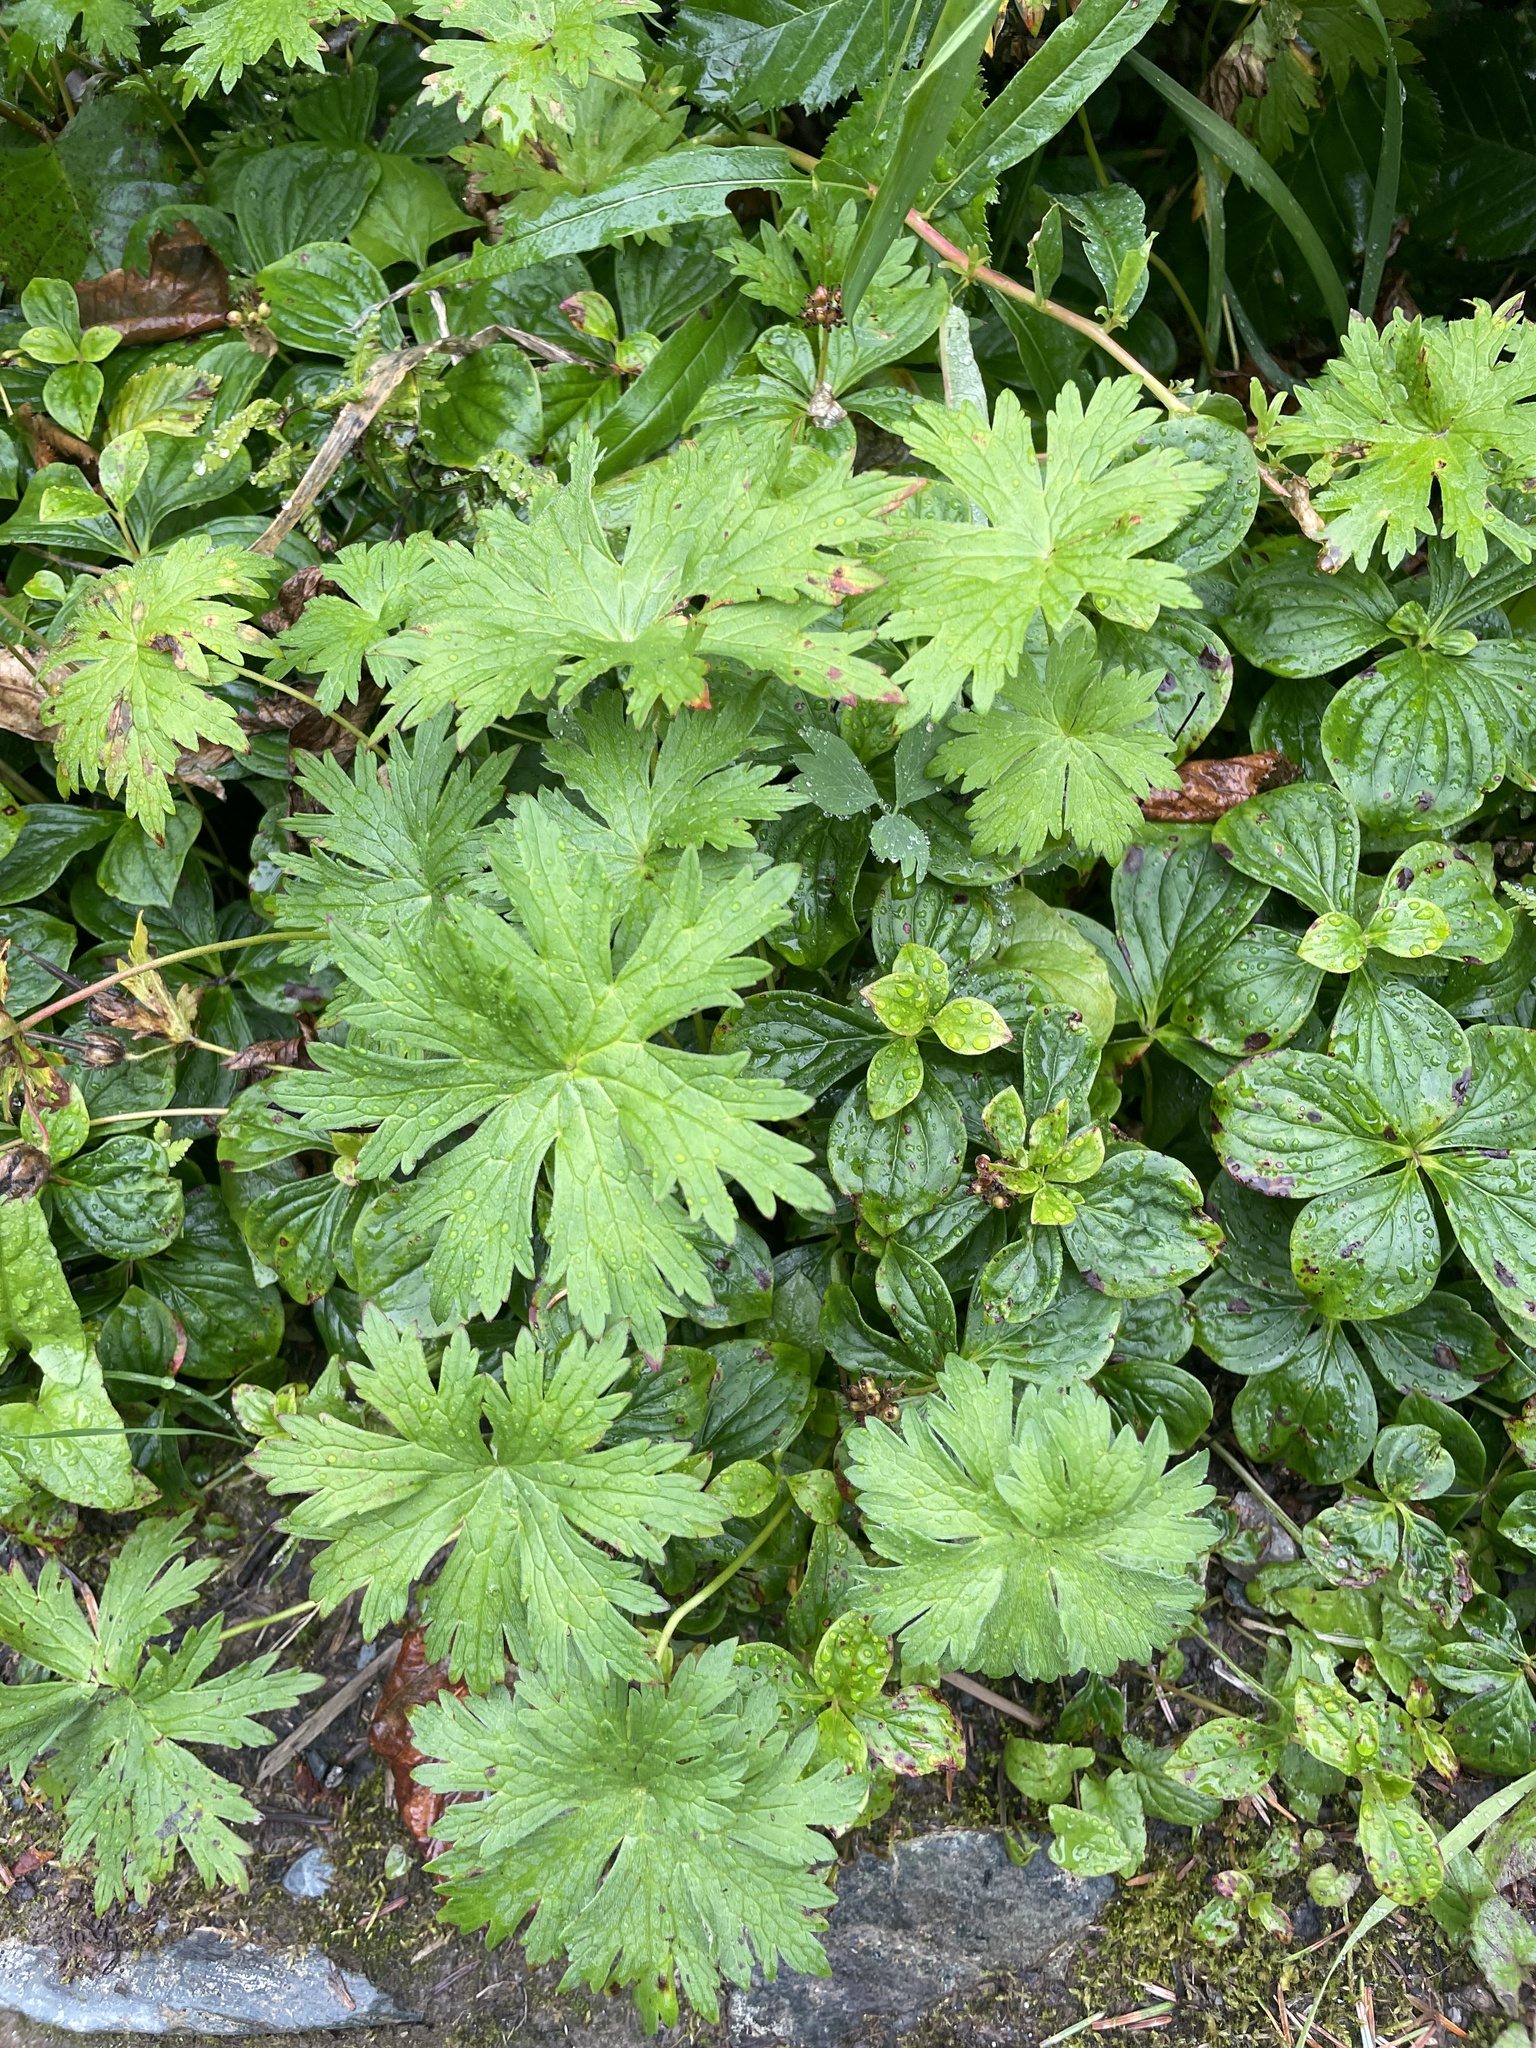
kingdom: Plantae
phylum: Tracheophyta
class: Magnoliopsida
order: Geraniales
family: Geraniaceae
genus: Geranium
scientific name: Geranium erianthum
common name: Northern crane's-bill
